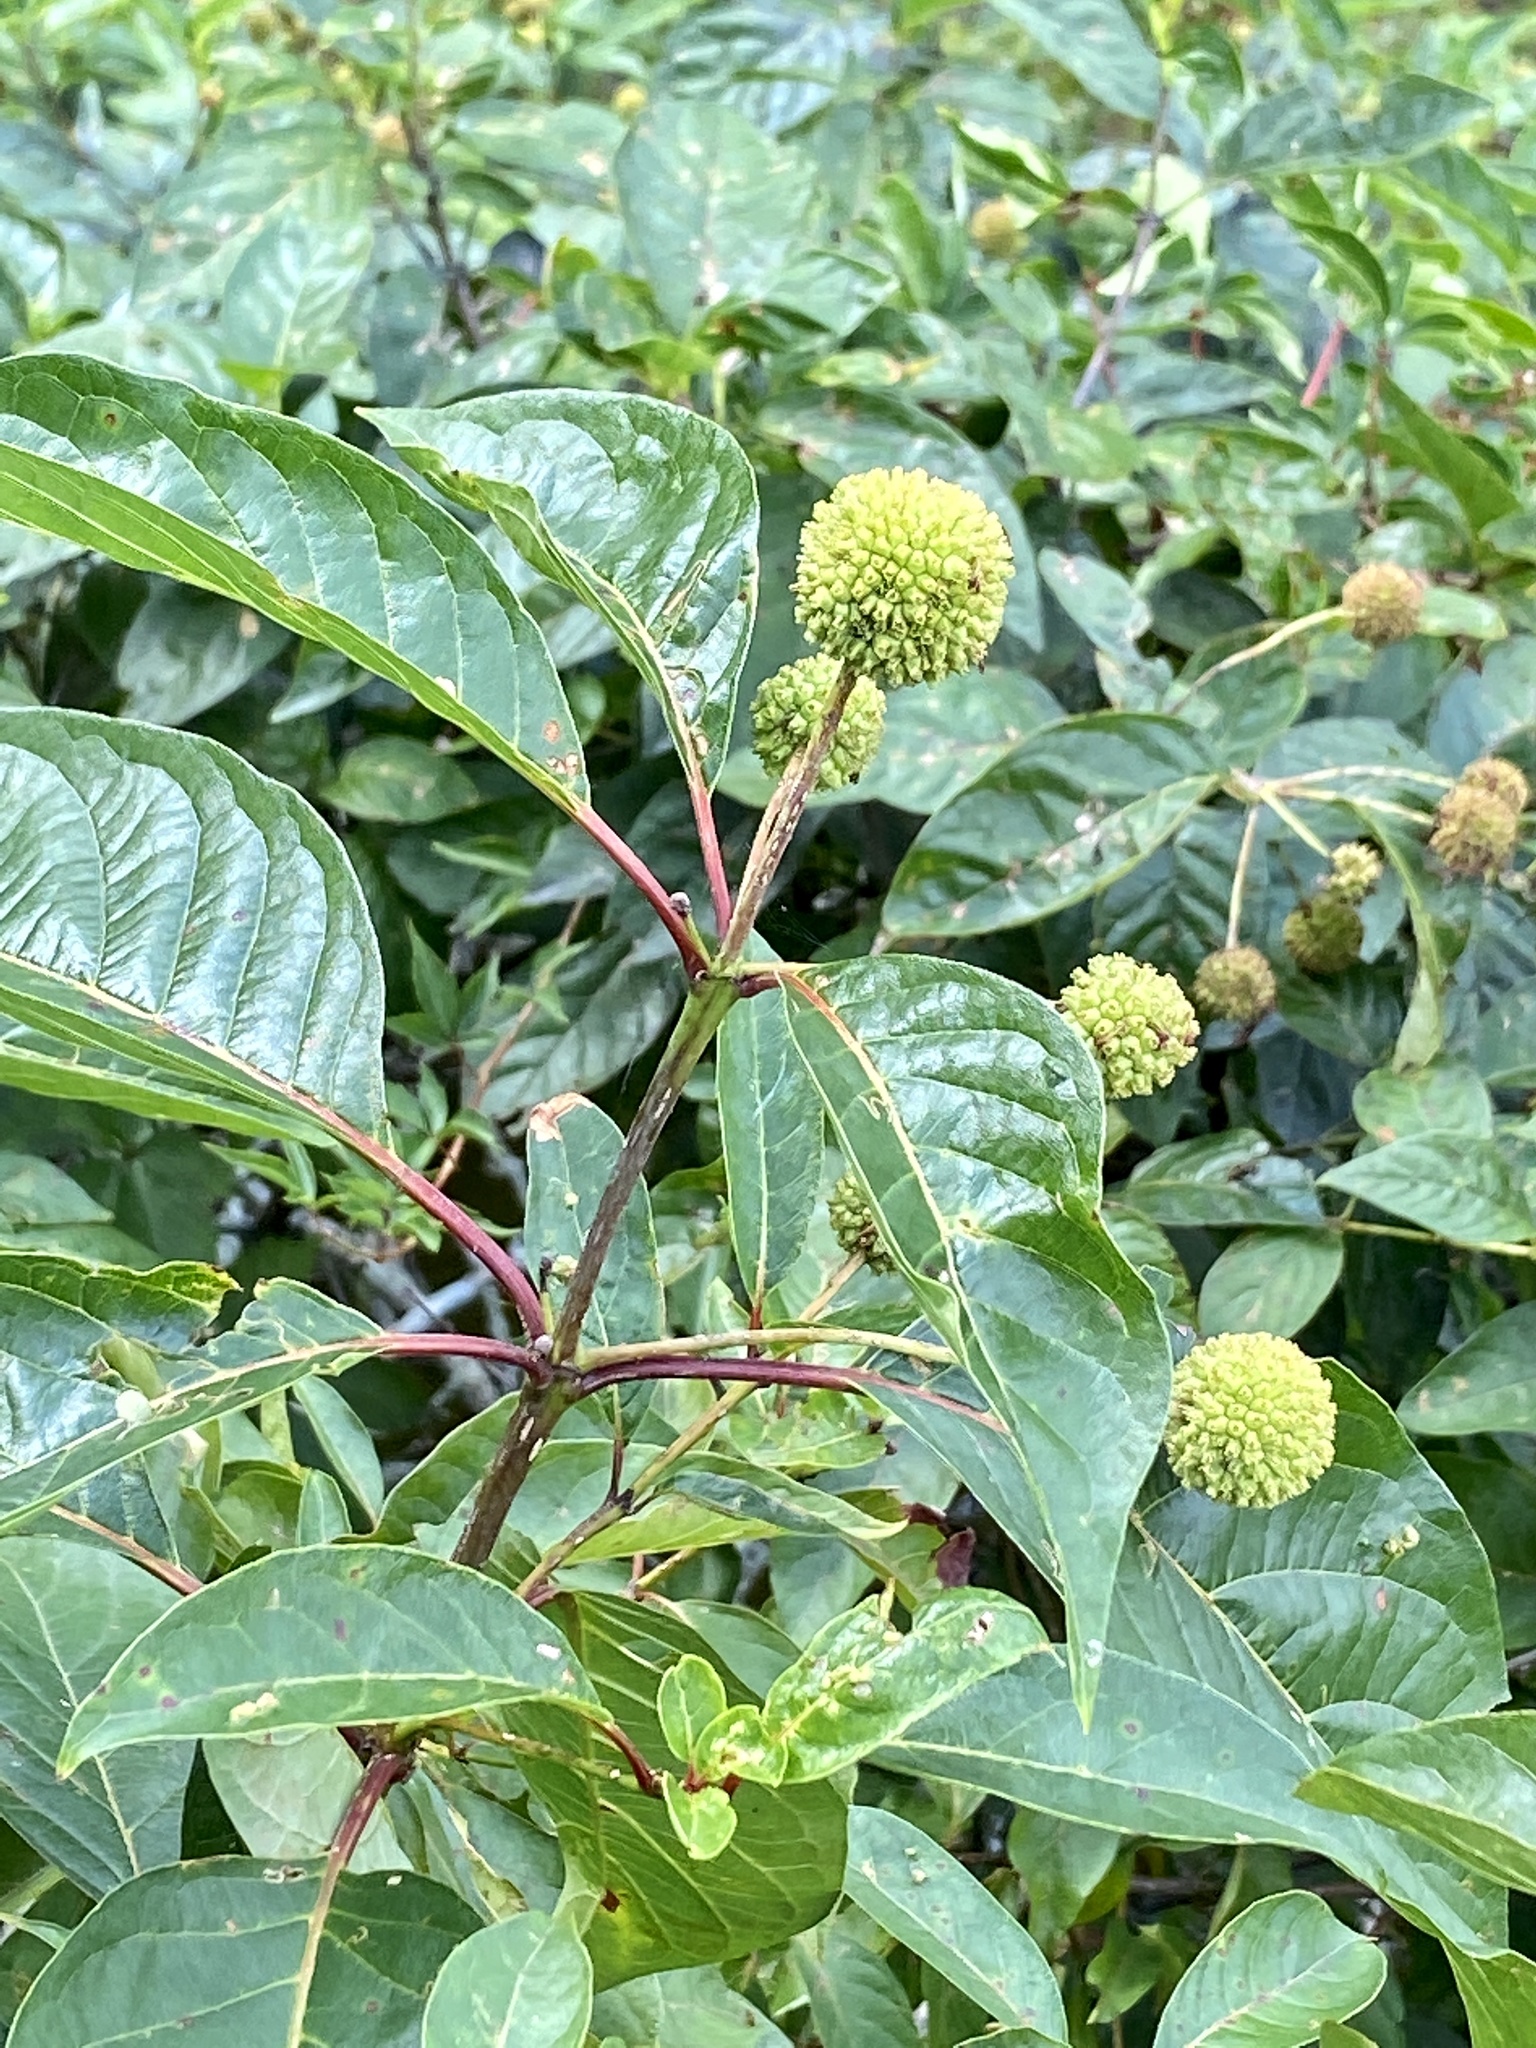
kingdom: Plantae
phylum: Tracheophyta
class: Magnoliopsida
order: Gentianales
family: Rubiaceae
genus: Cephalanthus
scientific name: Cephalanthus occidentalis
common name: Button-willow
